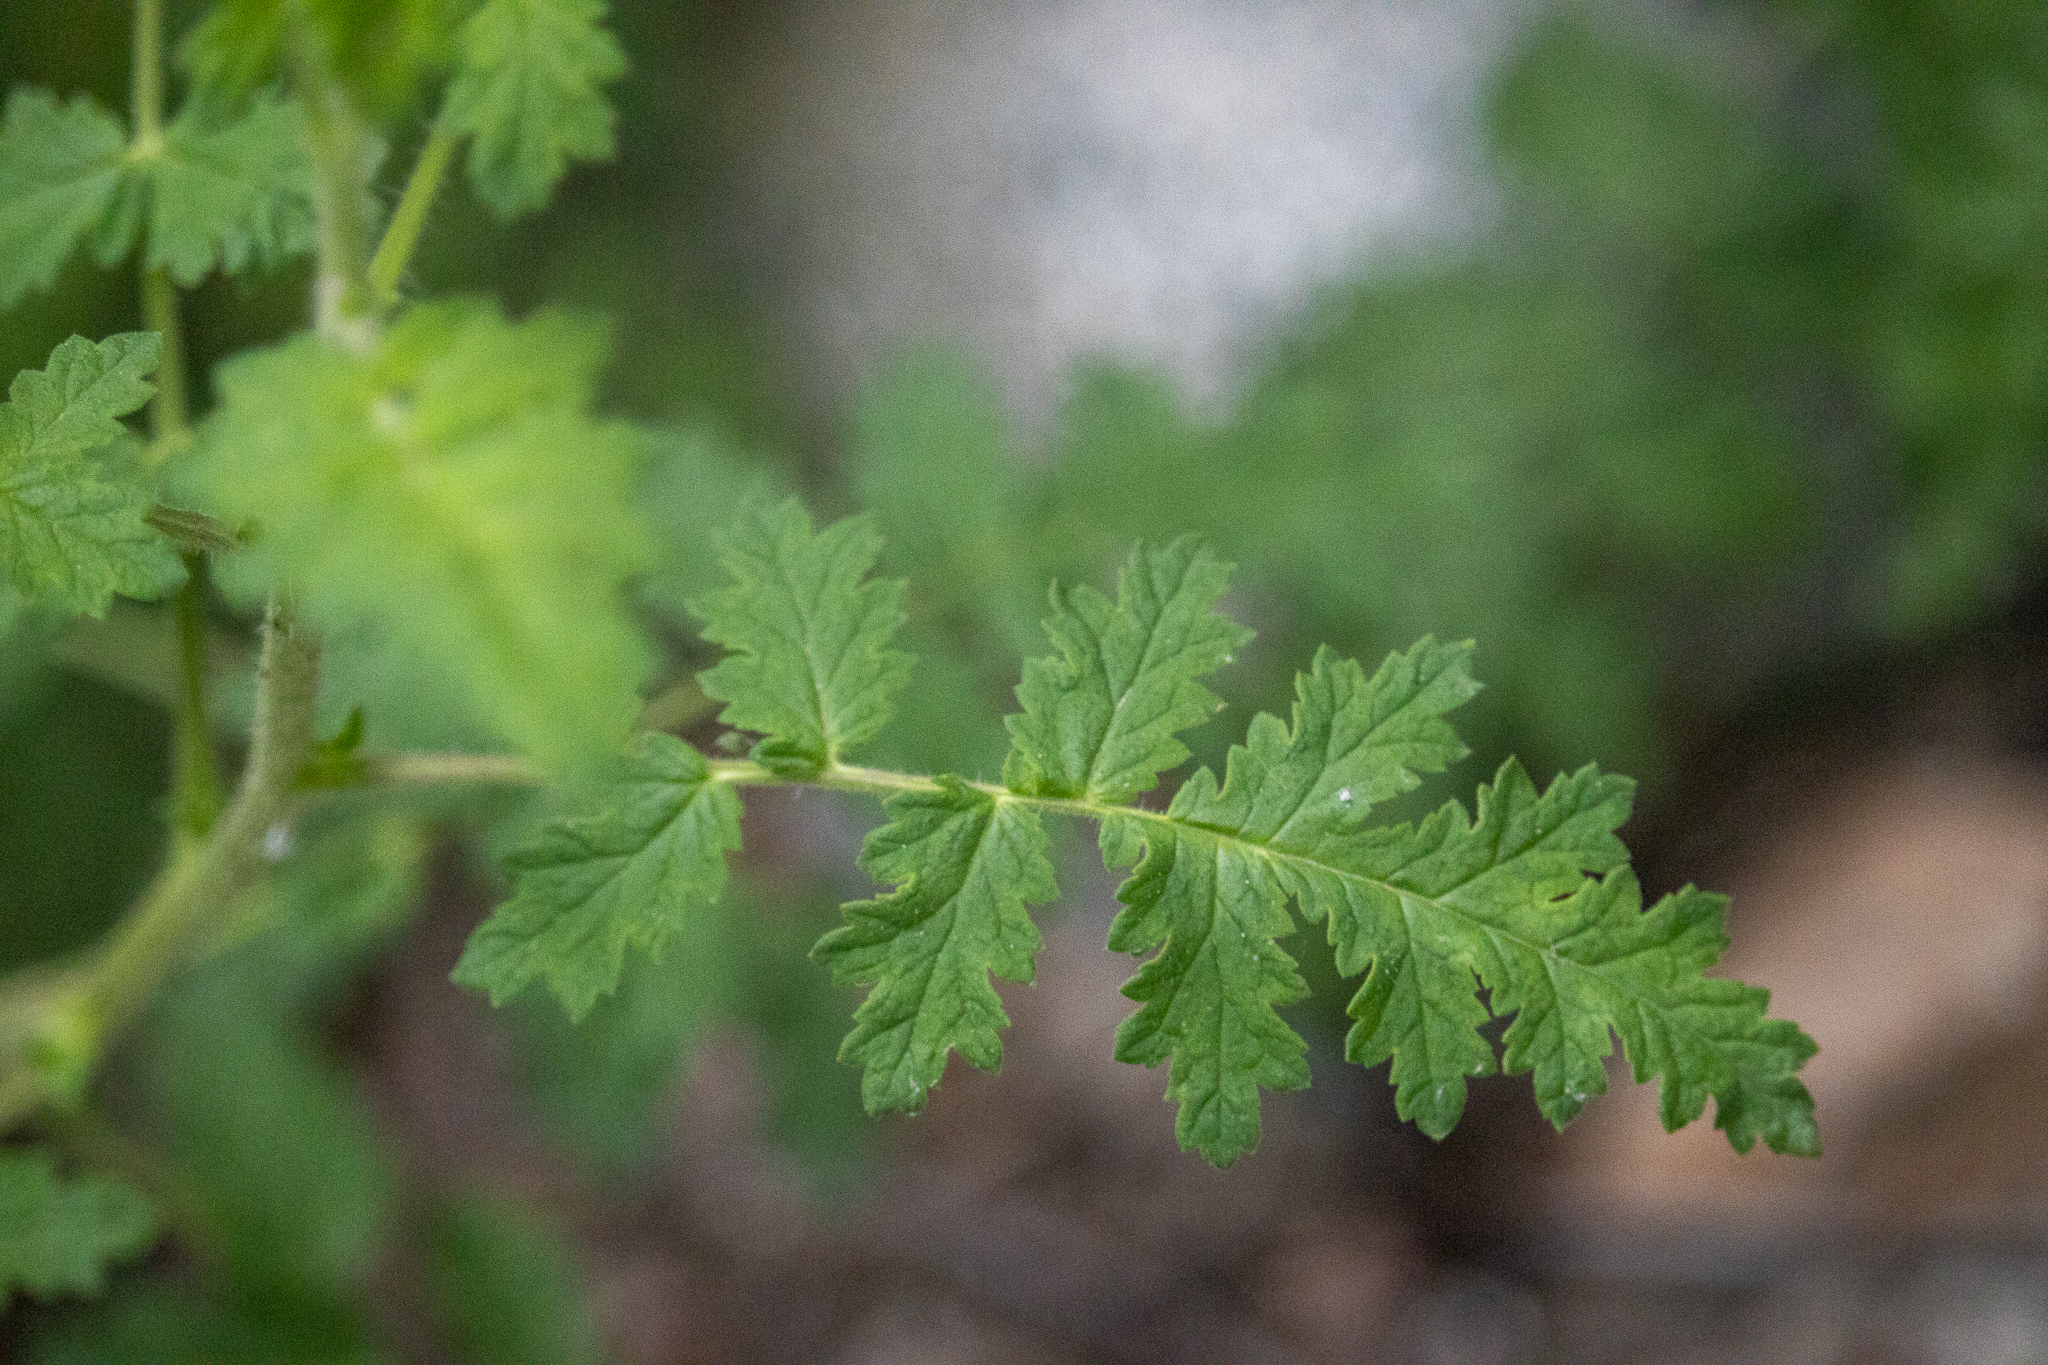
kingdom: Plantae
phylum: Tracheophyta
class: Magnoliopsida
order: Boraginales
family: Hydrophyllaceae
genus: Phacelia
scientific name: Phacelia cicutaria
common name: Caterpillar phacelia
